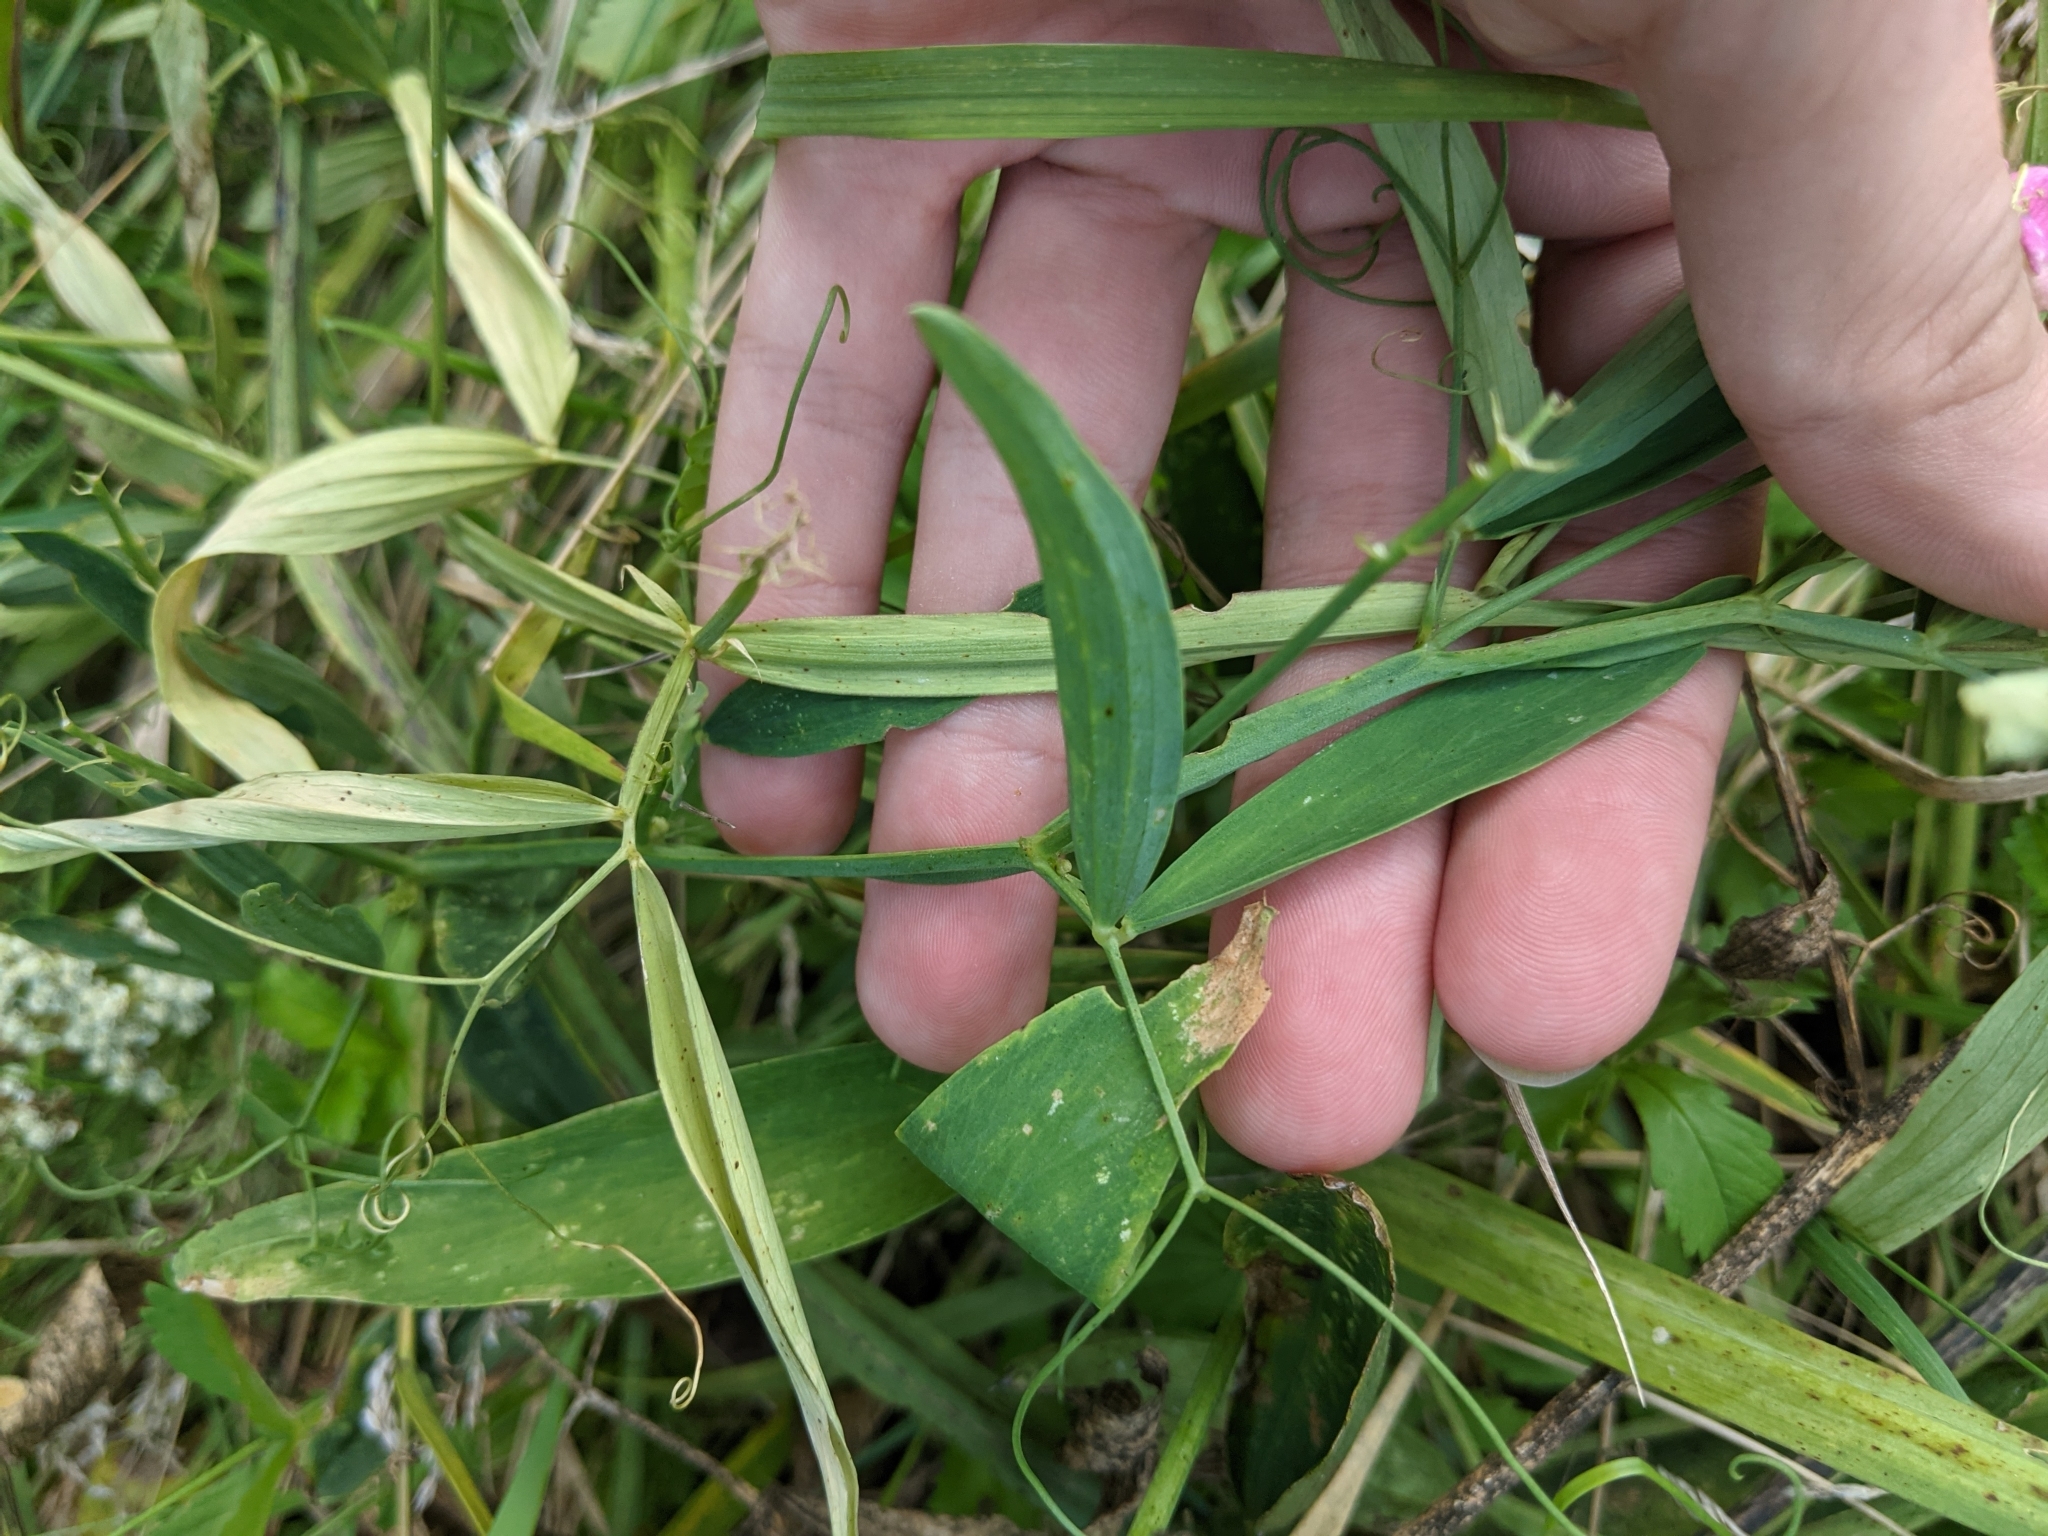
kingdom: Plantae
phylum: Tracheophyta
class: Magnoliopsida
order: Fabales
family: Fabaceae
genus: Lathyrus
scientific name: Lathyrus sylvestris
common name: Flat pea
